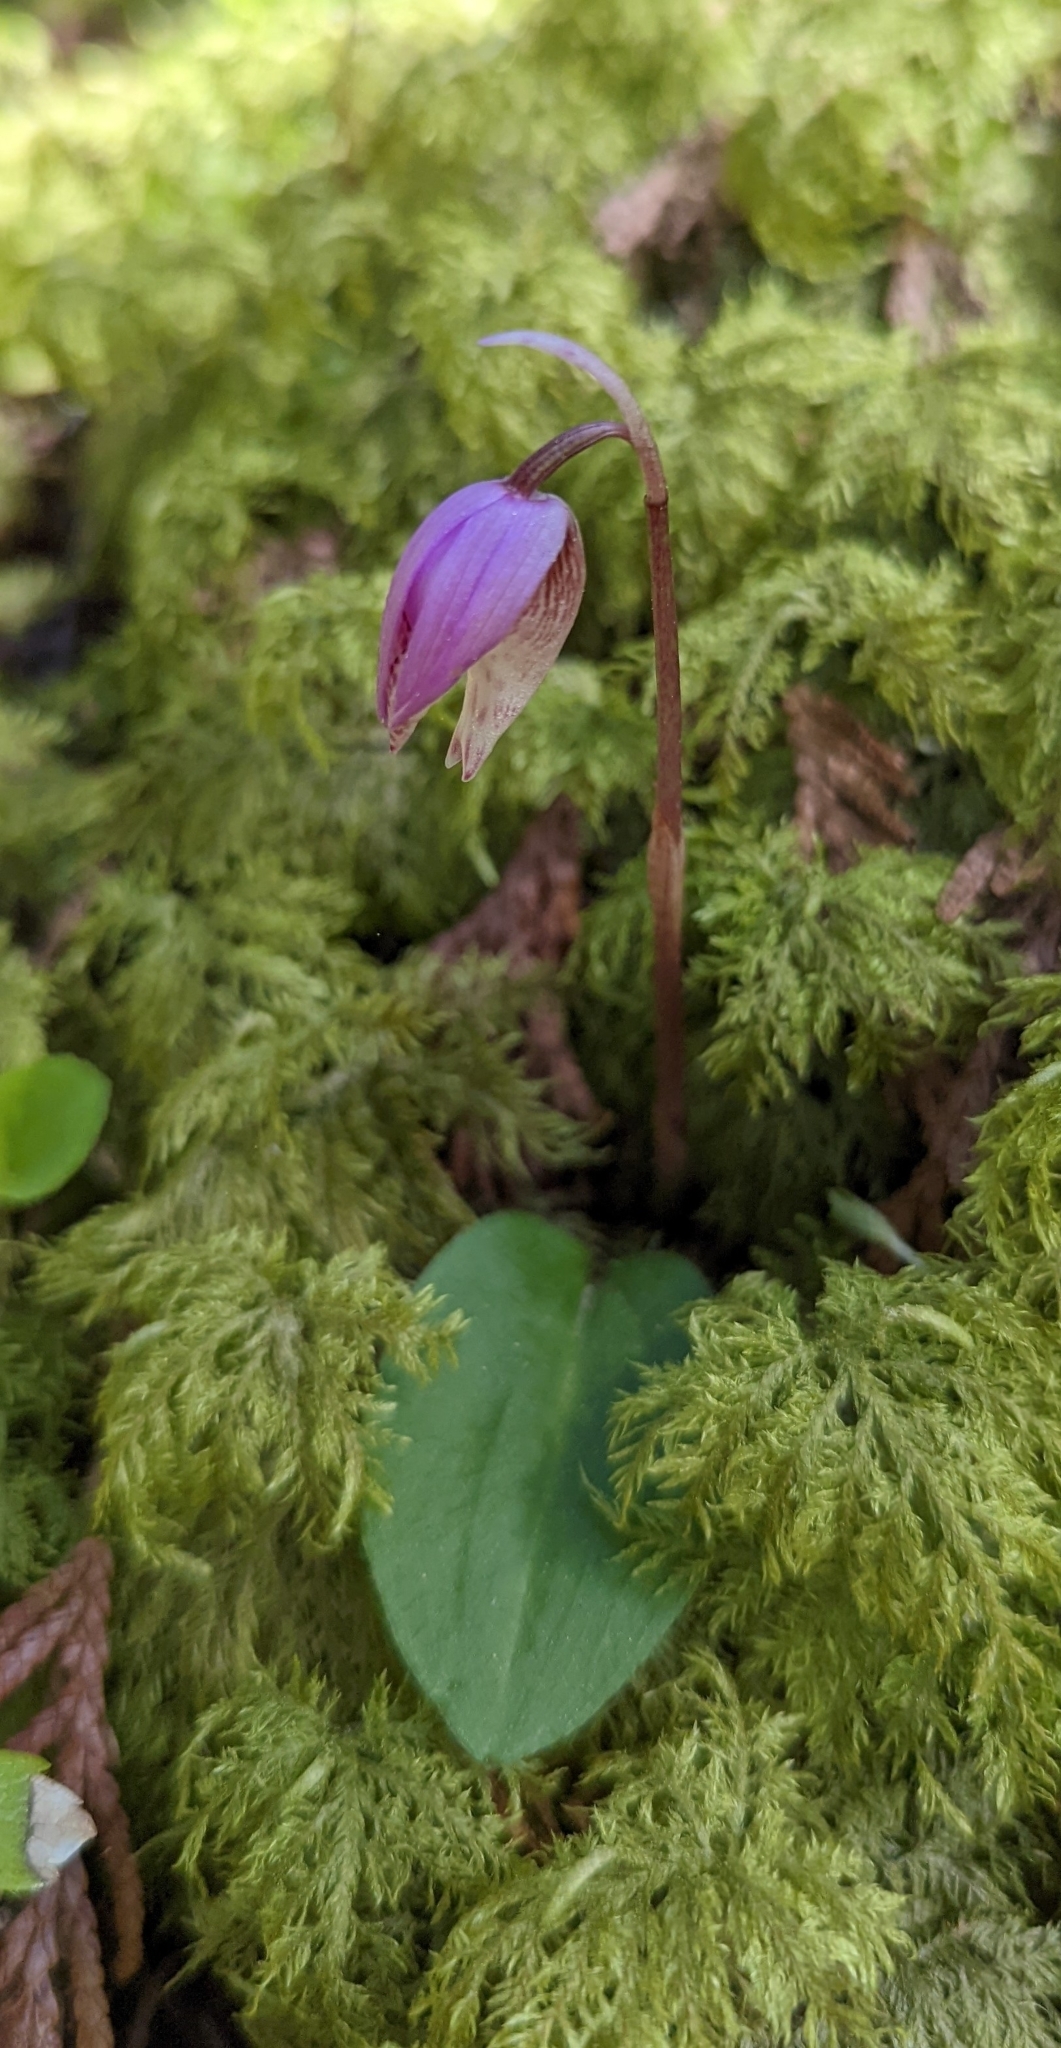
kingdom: Plantae
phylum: Tracheophyta
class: Liliopsida
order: Asparagales
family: Orchidaceae
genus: Calypso
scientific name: Calypso bulbosa
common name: Calypso
